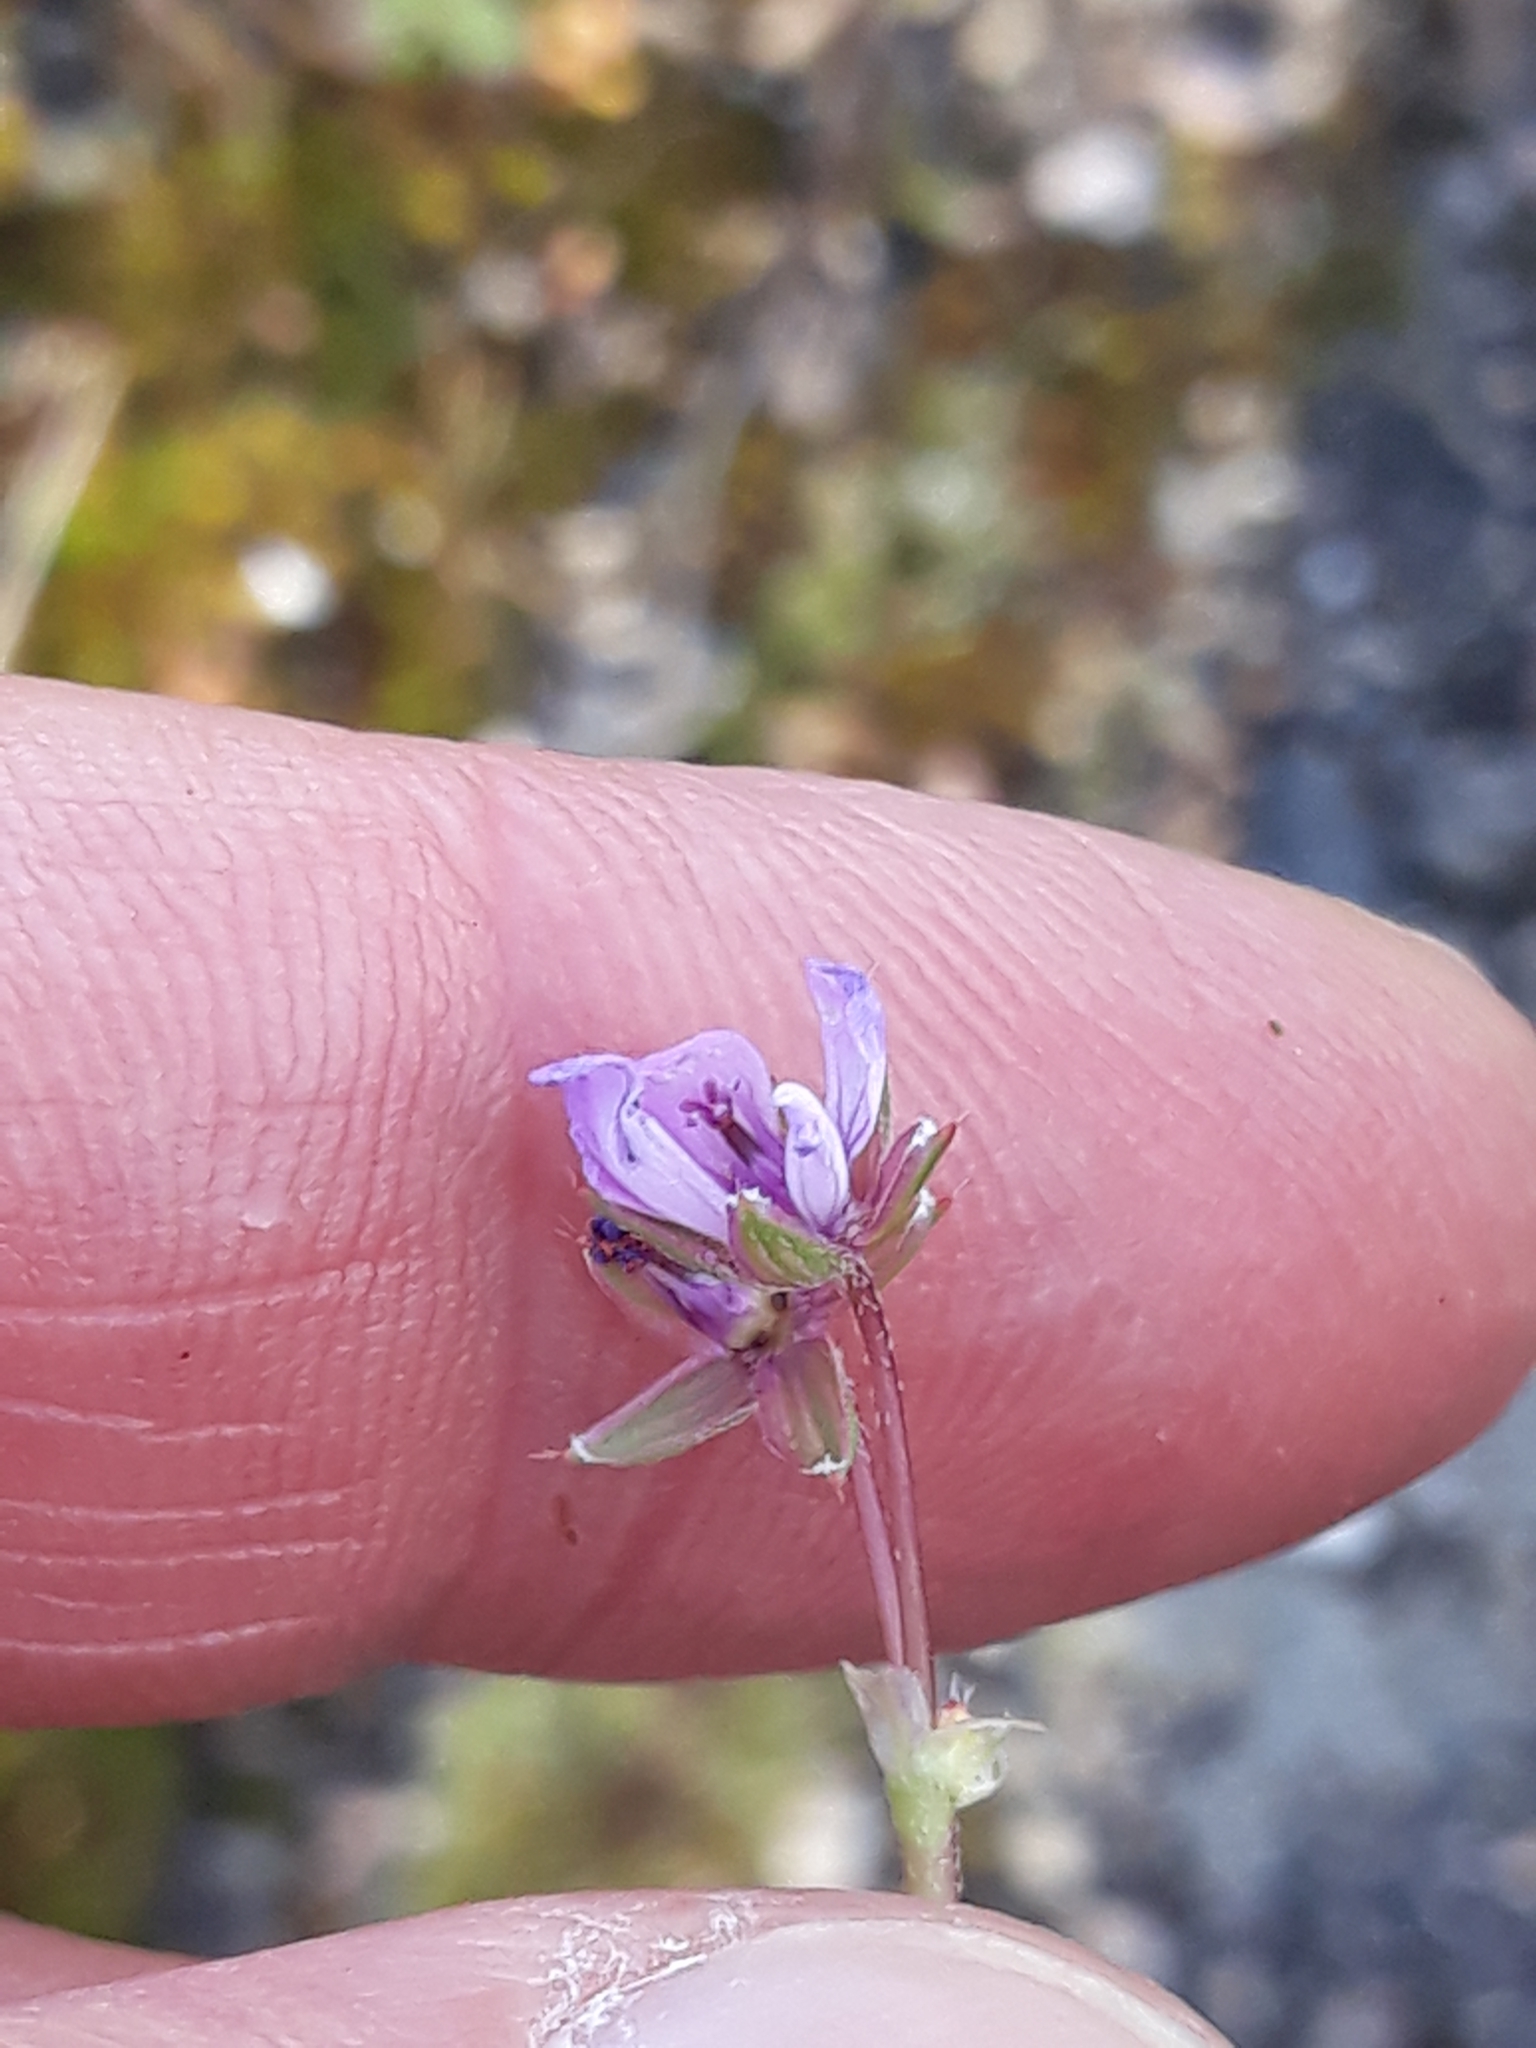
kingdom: Plantae
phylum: Tracheophyta
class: Magnoliopsida
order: Geraniales
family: Geraniaceae
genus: Erodium
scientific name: Erodium cicutarium
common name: Common stork's-bill
